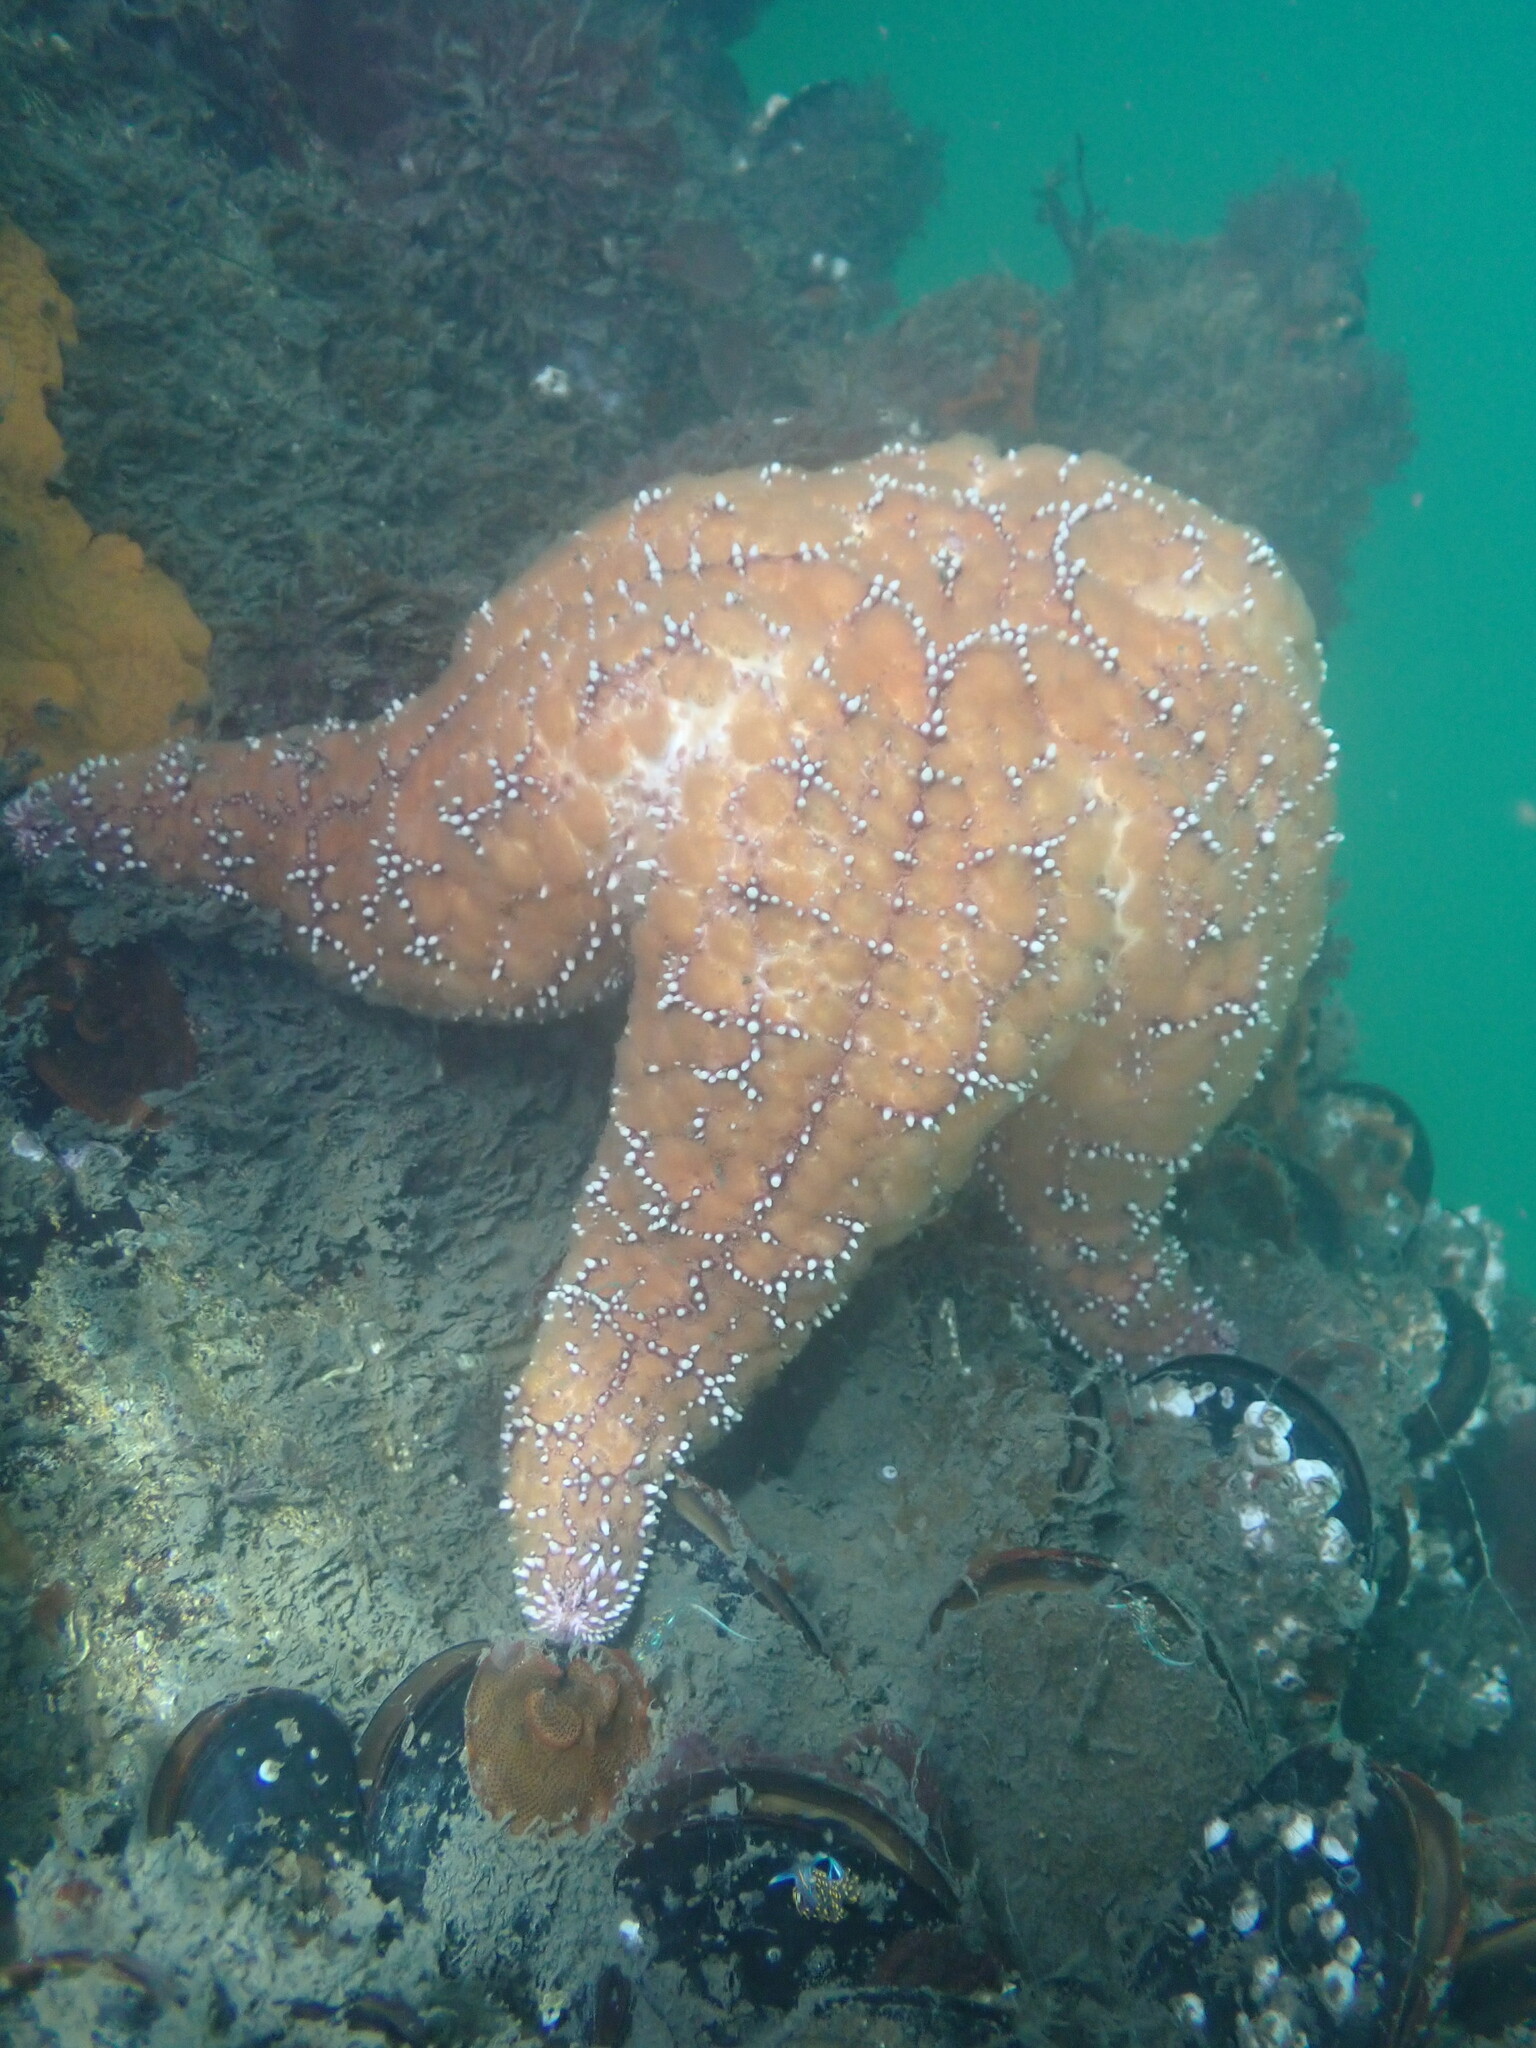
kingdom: Animalia
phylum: Echinodermata
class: Asteroidea
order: Forcipulatida
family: Asteriidae
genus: Pisaster
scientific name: Pisaster ochraceus
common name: Ochre stars
